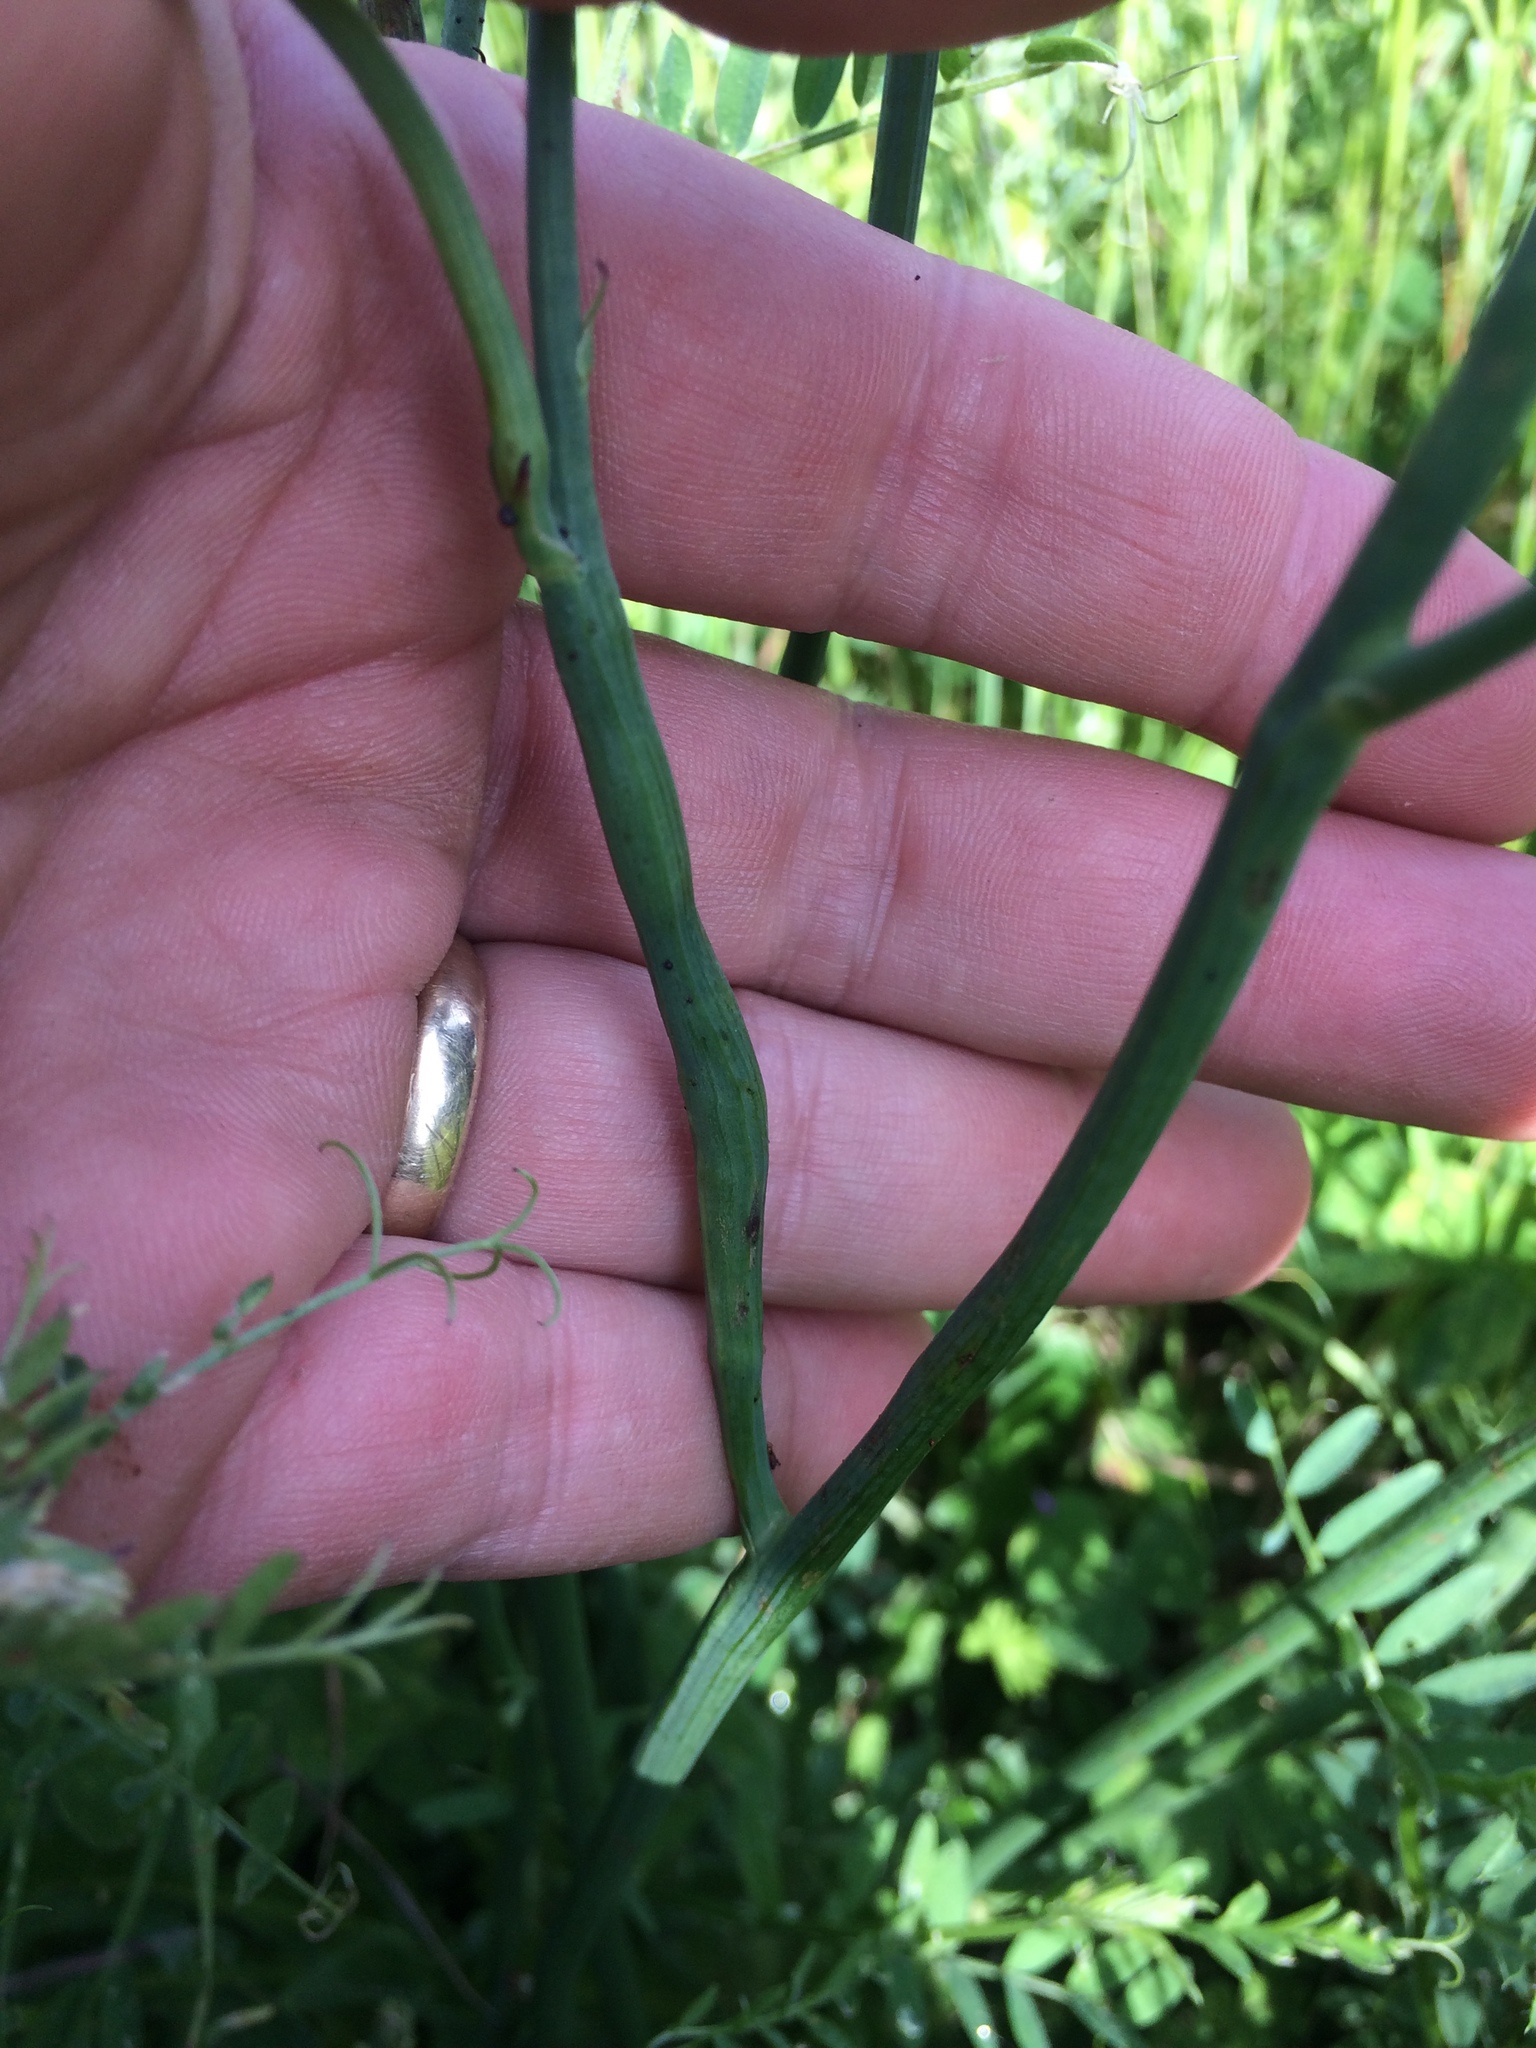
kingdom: Animalia
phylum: Arthropoda
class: Insecta
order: Hymenoptera
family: Cynipidae
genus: Phanacis
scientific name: Phanacis hypochoeridis
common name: Gall wasp
